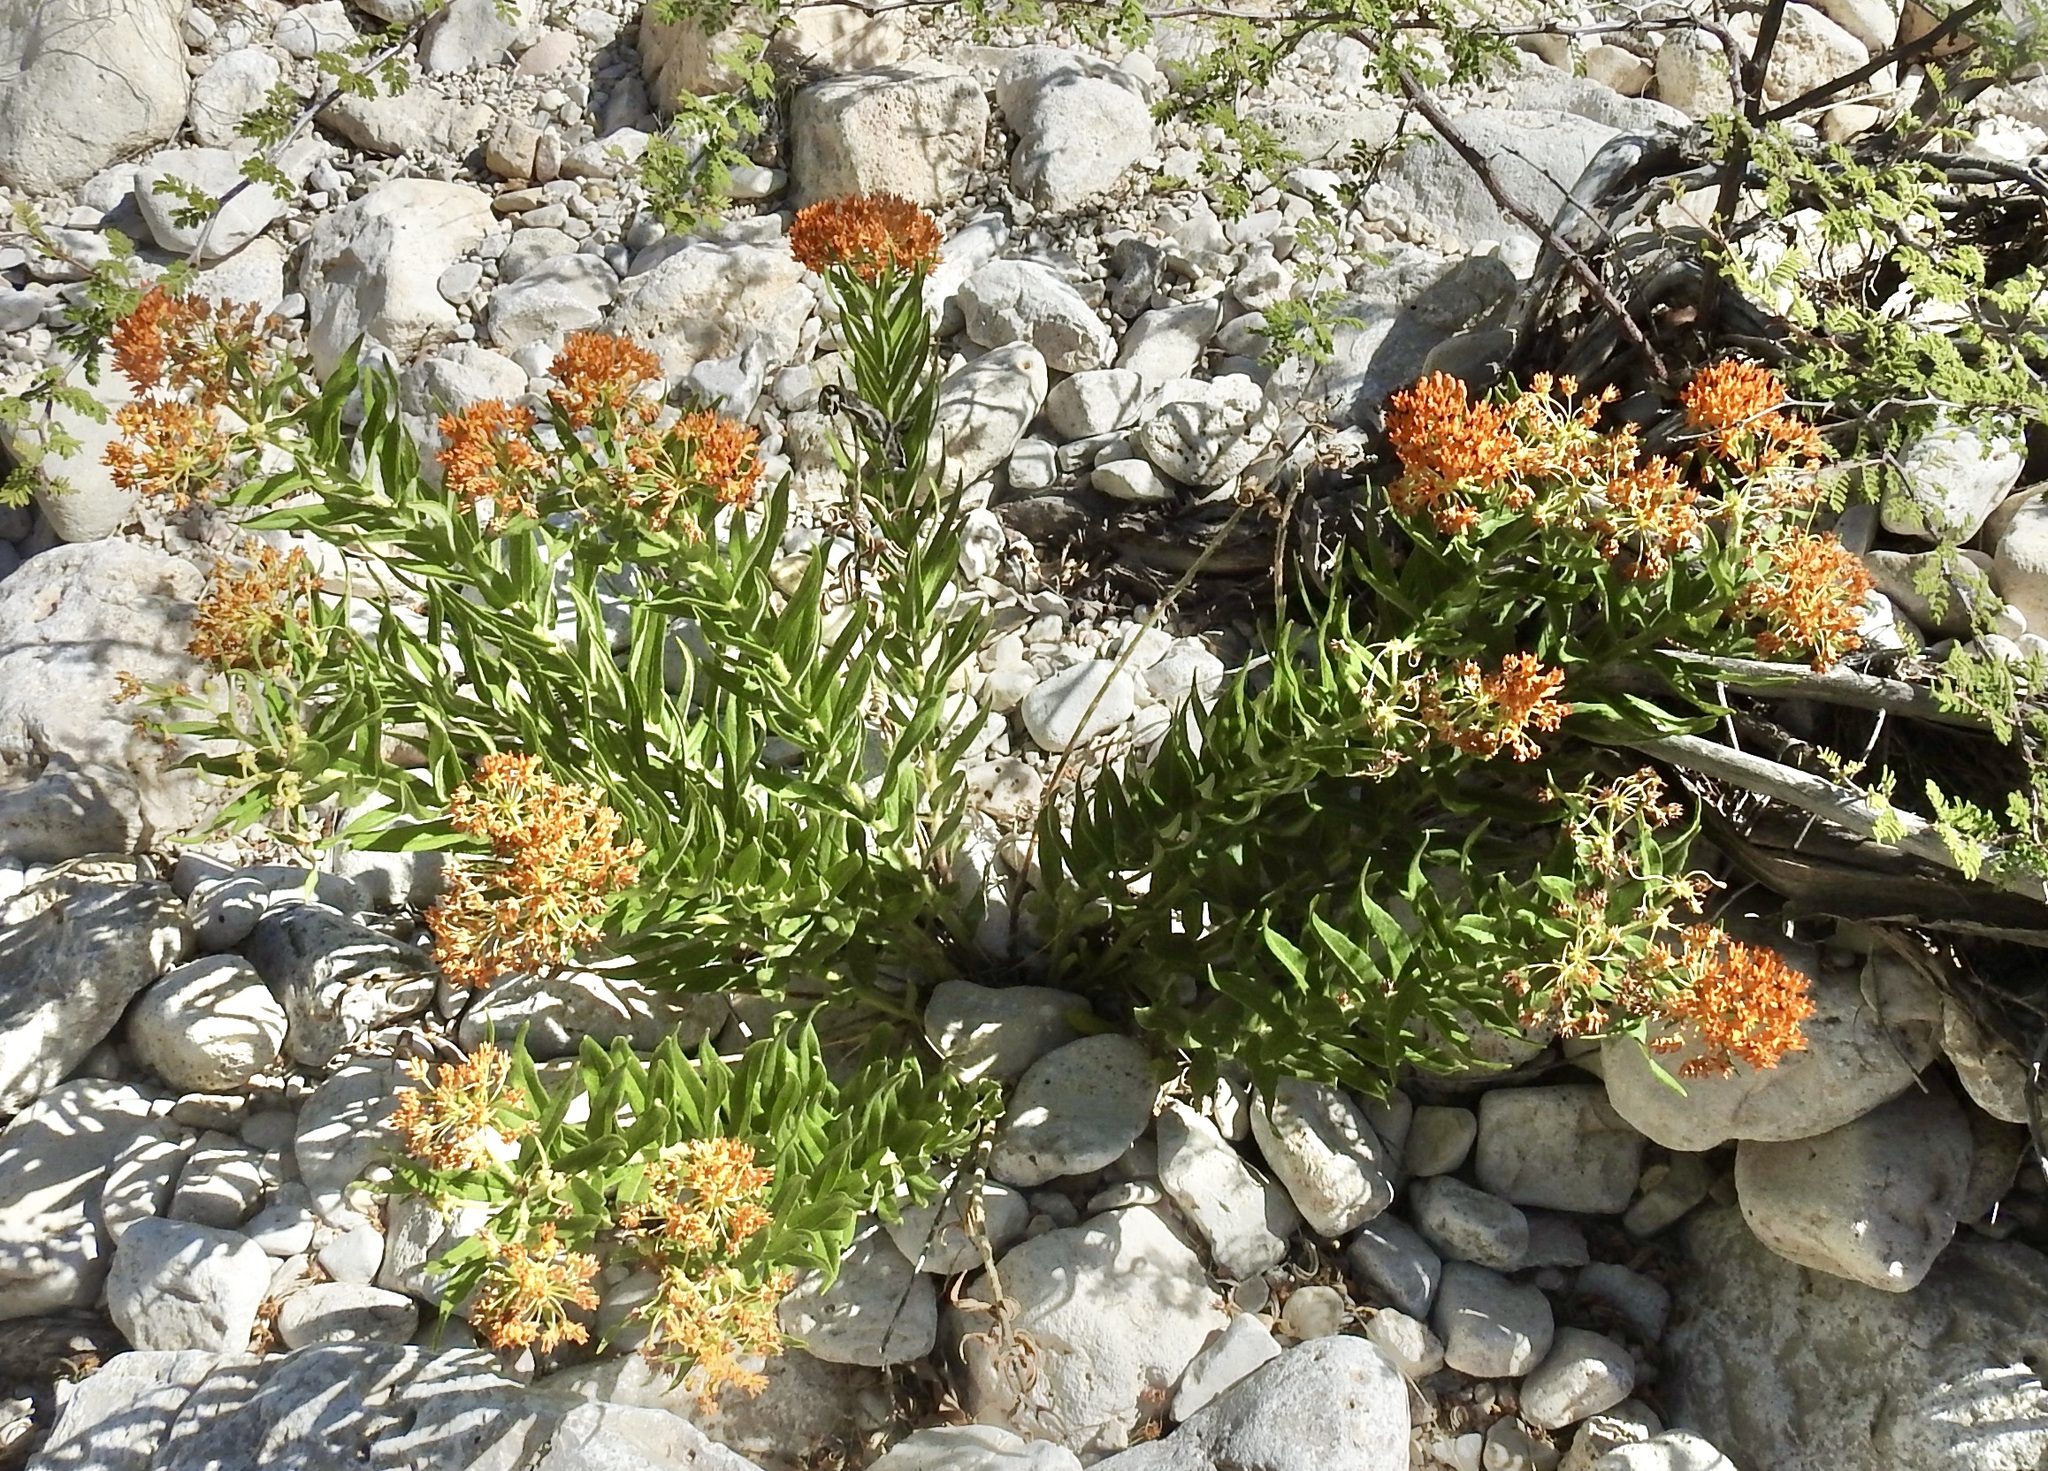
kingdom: Plantae
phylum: Tracheophyta
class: Magnoliopsida
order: Gentianales
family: Apocynaceae
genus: Asclepias
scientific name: Asclepias tuberosa
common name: Butterfly milkweed
